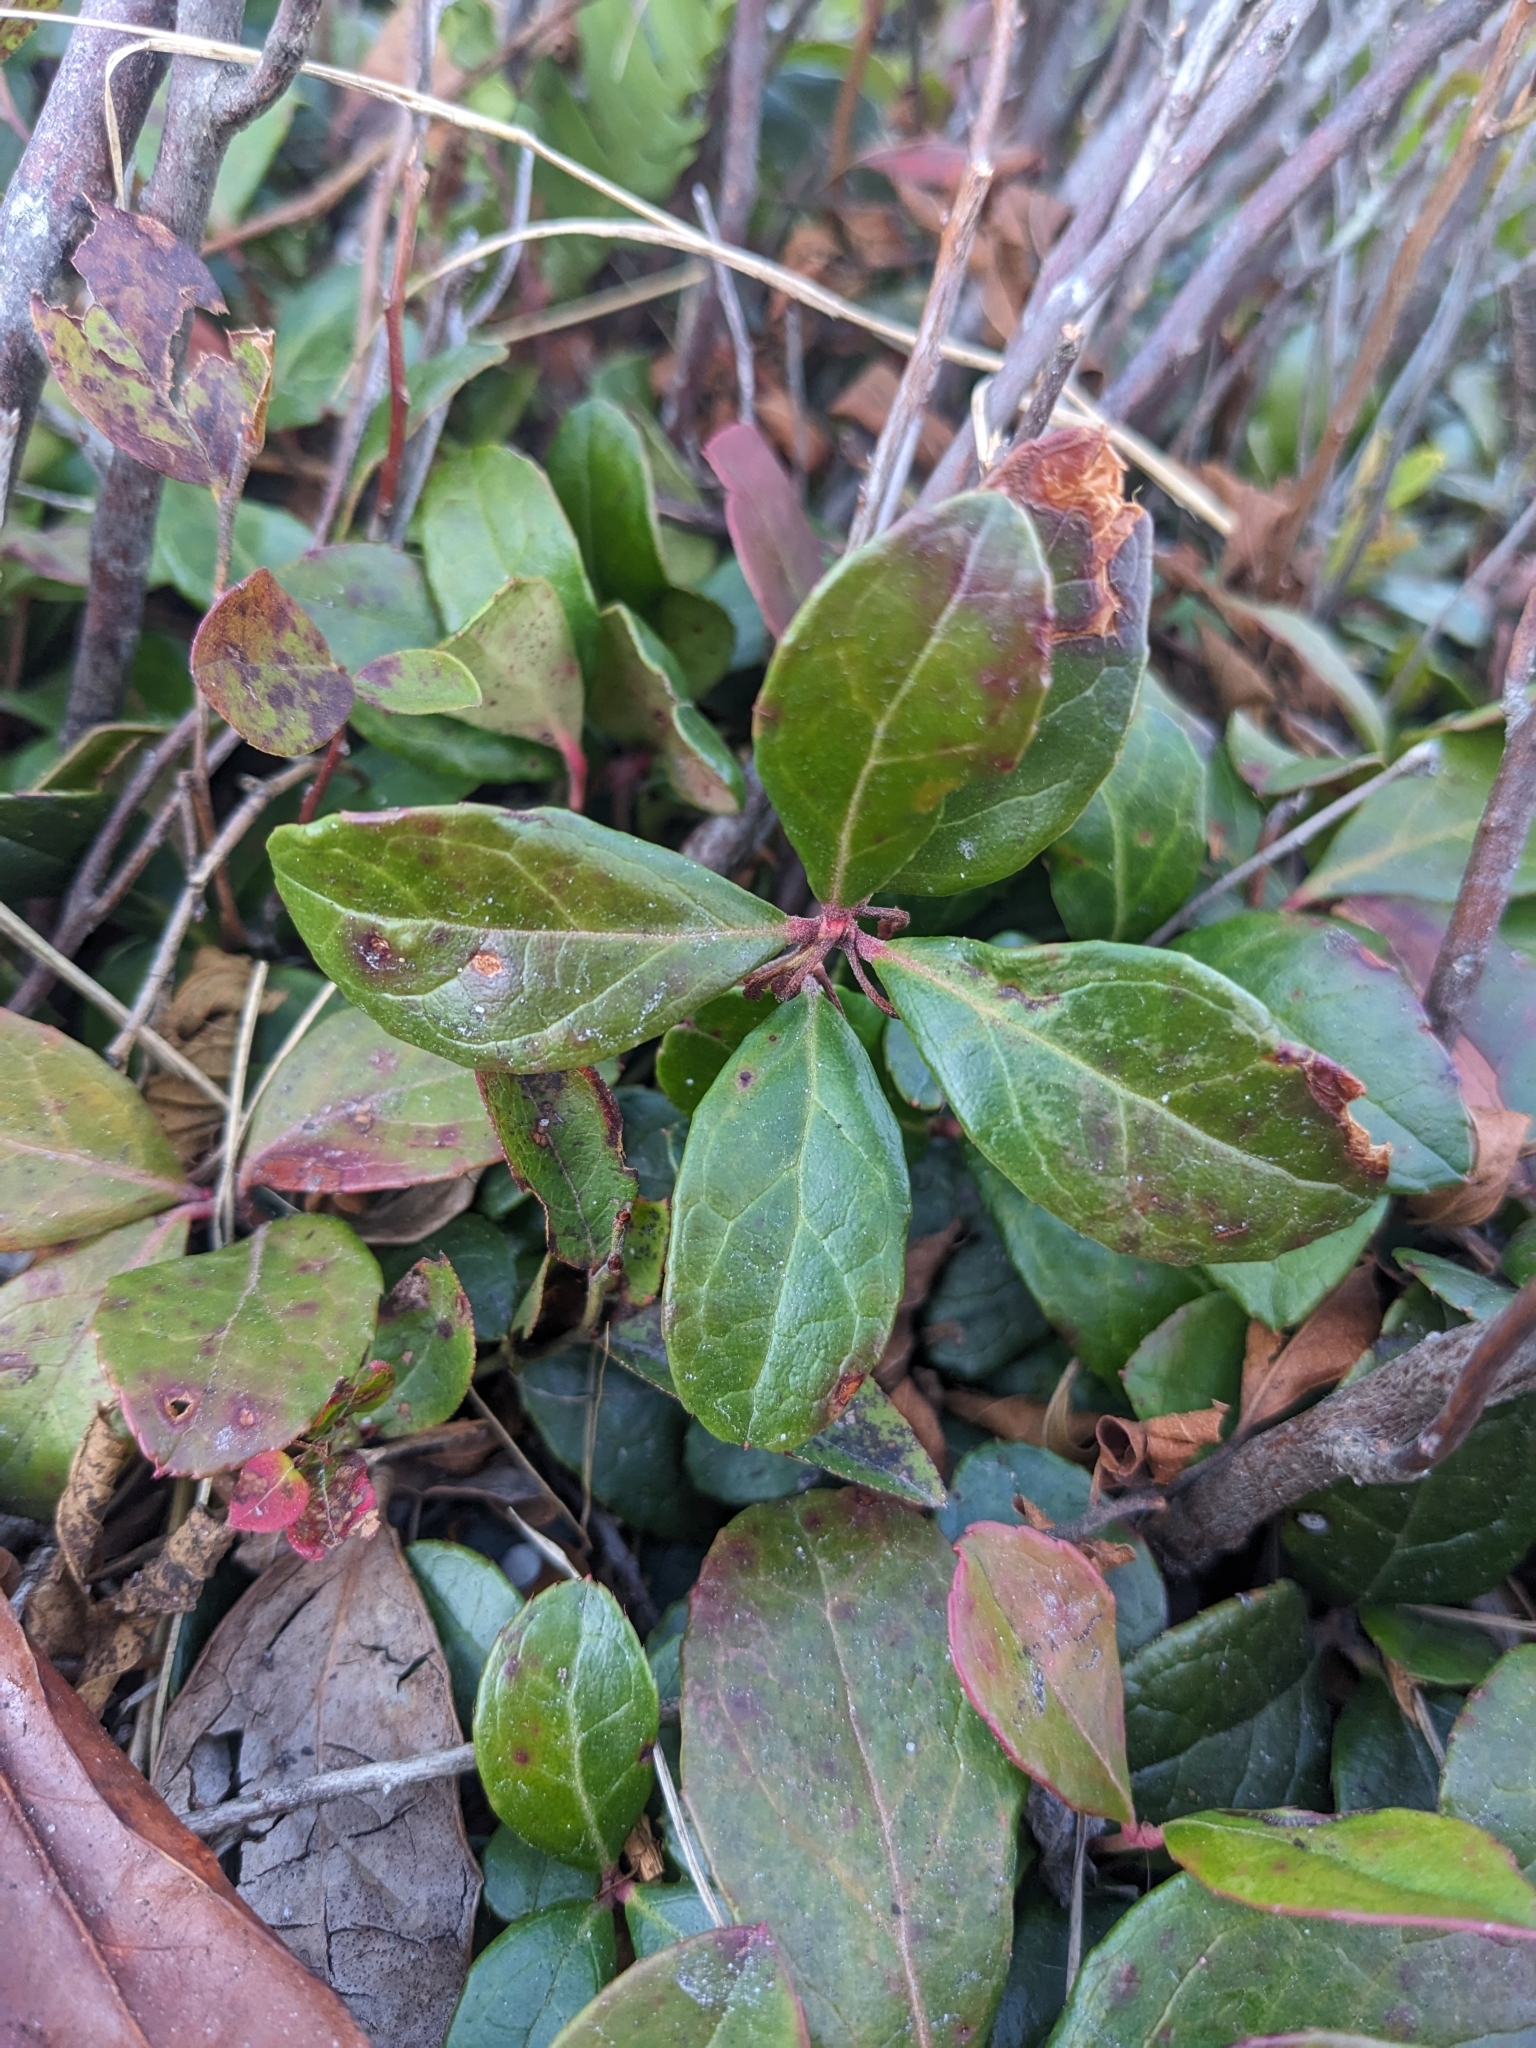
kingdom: Plantae
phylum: Tracheophyta
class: Magnoliopsida
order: Ericales
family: Ericaceae
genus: Gaultheria
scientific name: Gaultheria procumbens
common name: Checkerberry
